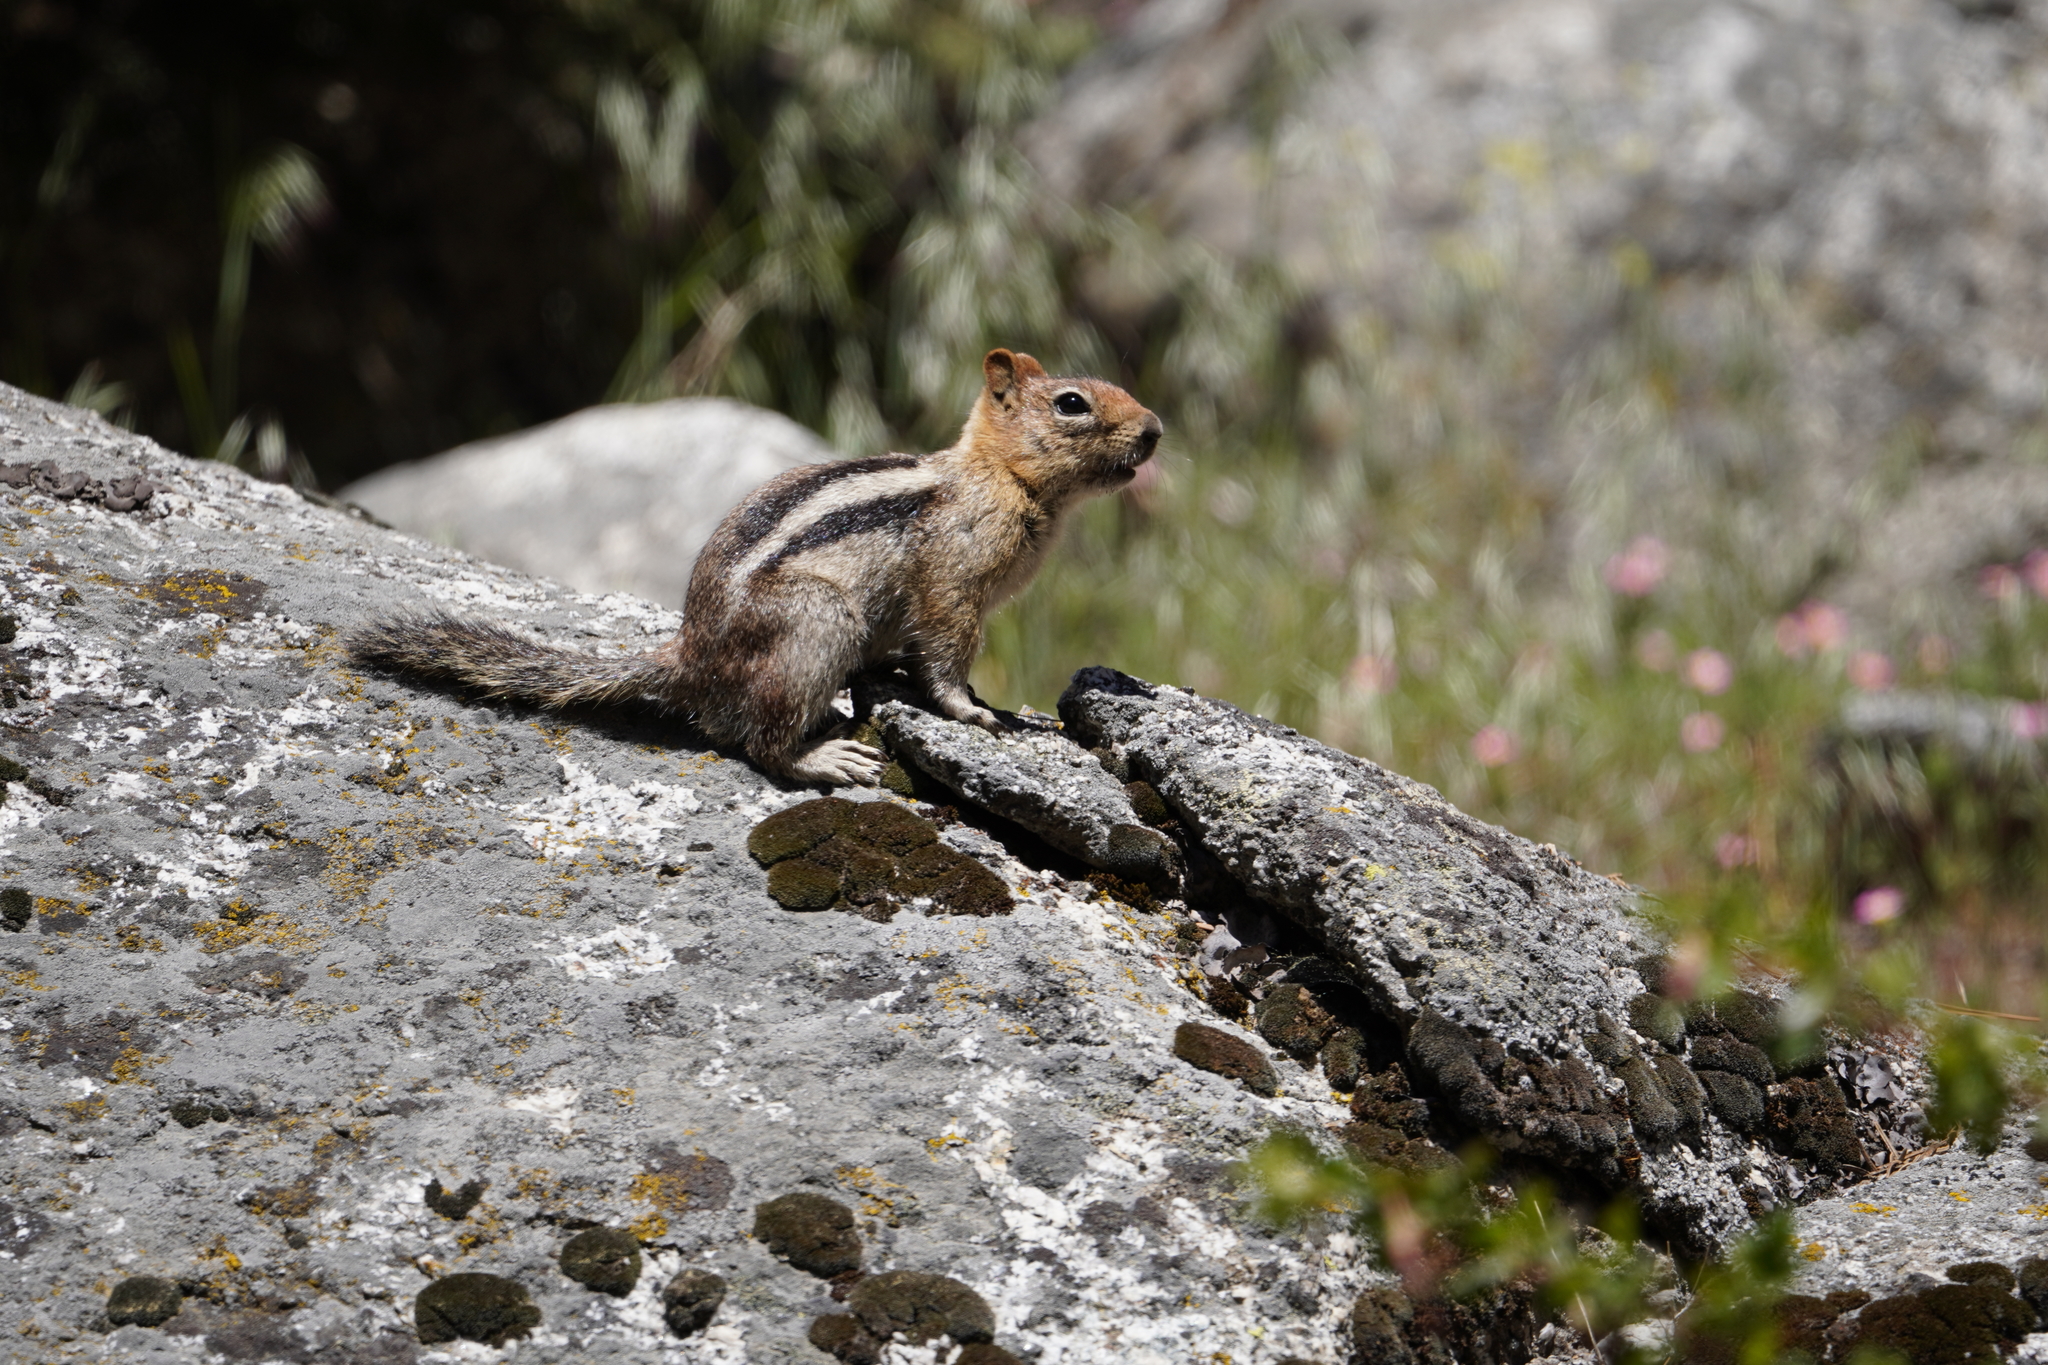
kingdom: Animalia
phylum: Chordata
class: Mammalia
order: Rodentia
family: Sciuridae
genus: Callospermophilus
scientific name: Callospermophilus lateralis
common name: Golden-mantled ground squirrel
